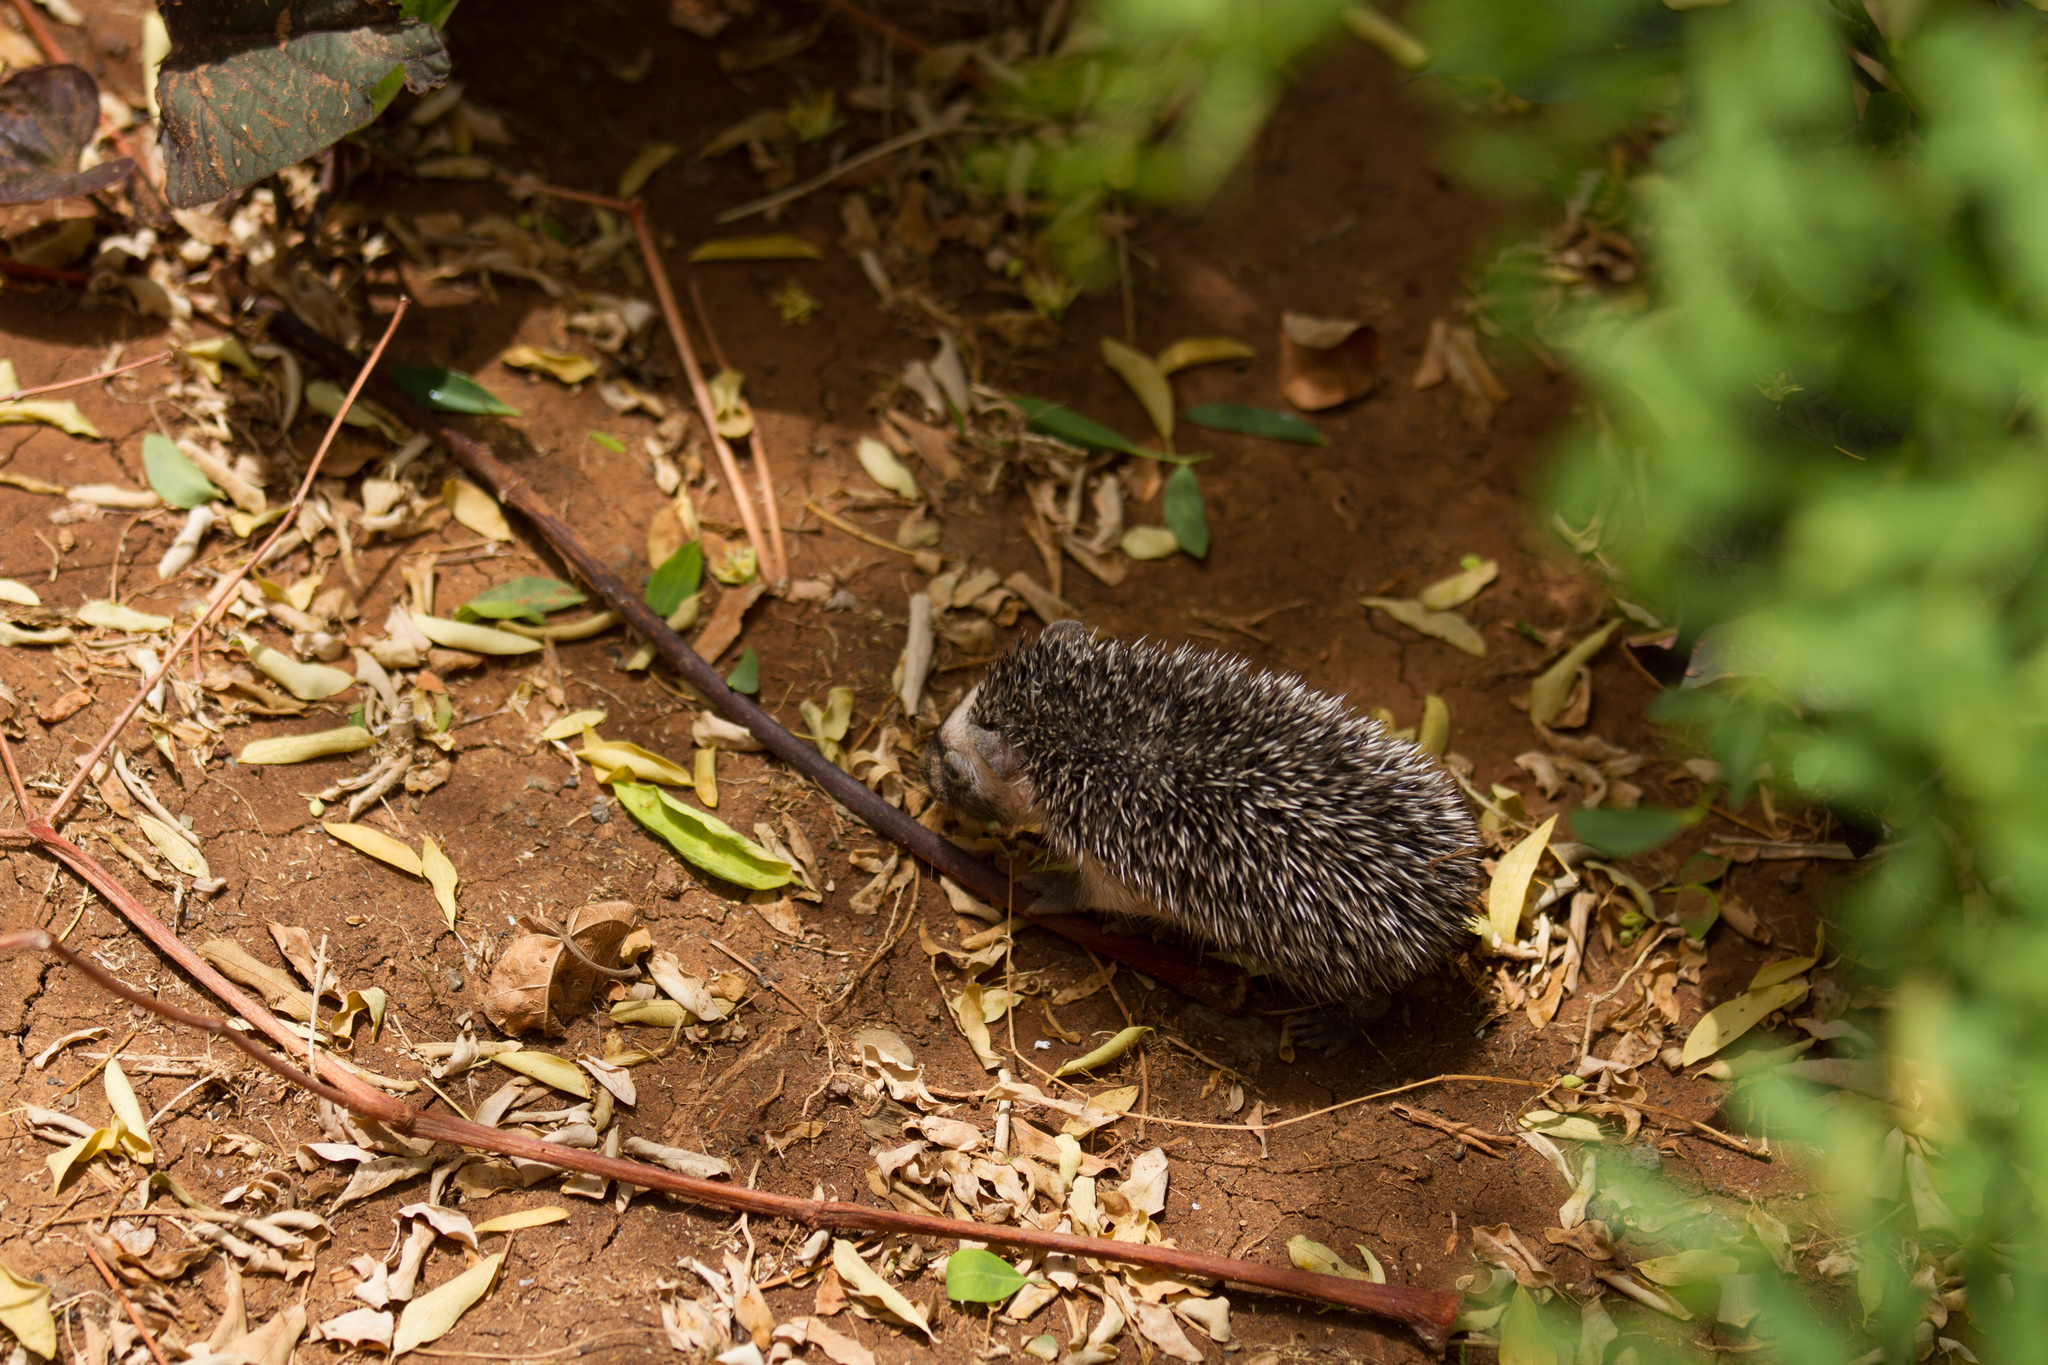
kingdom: Animalia
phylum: Chordata
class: Mammalia
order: Erinaceomorpha
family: Erinaceidae
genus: Atelerix
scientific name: Atelerix algirus
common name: North african hedgehog
